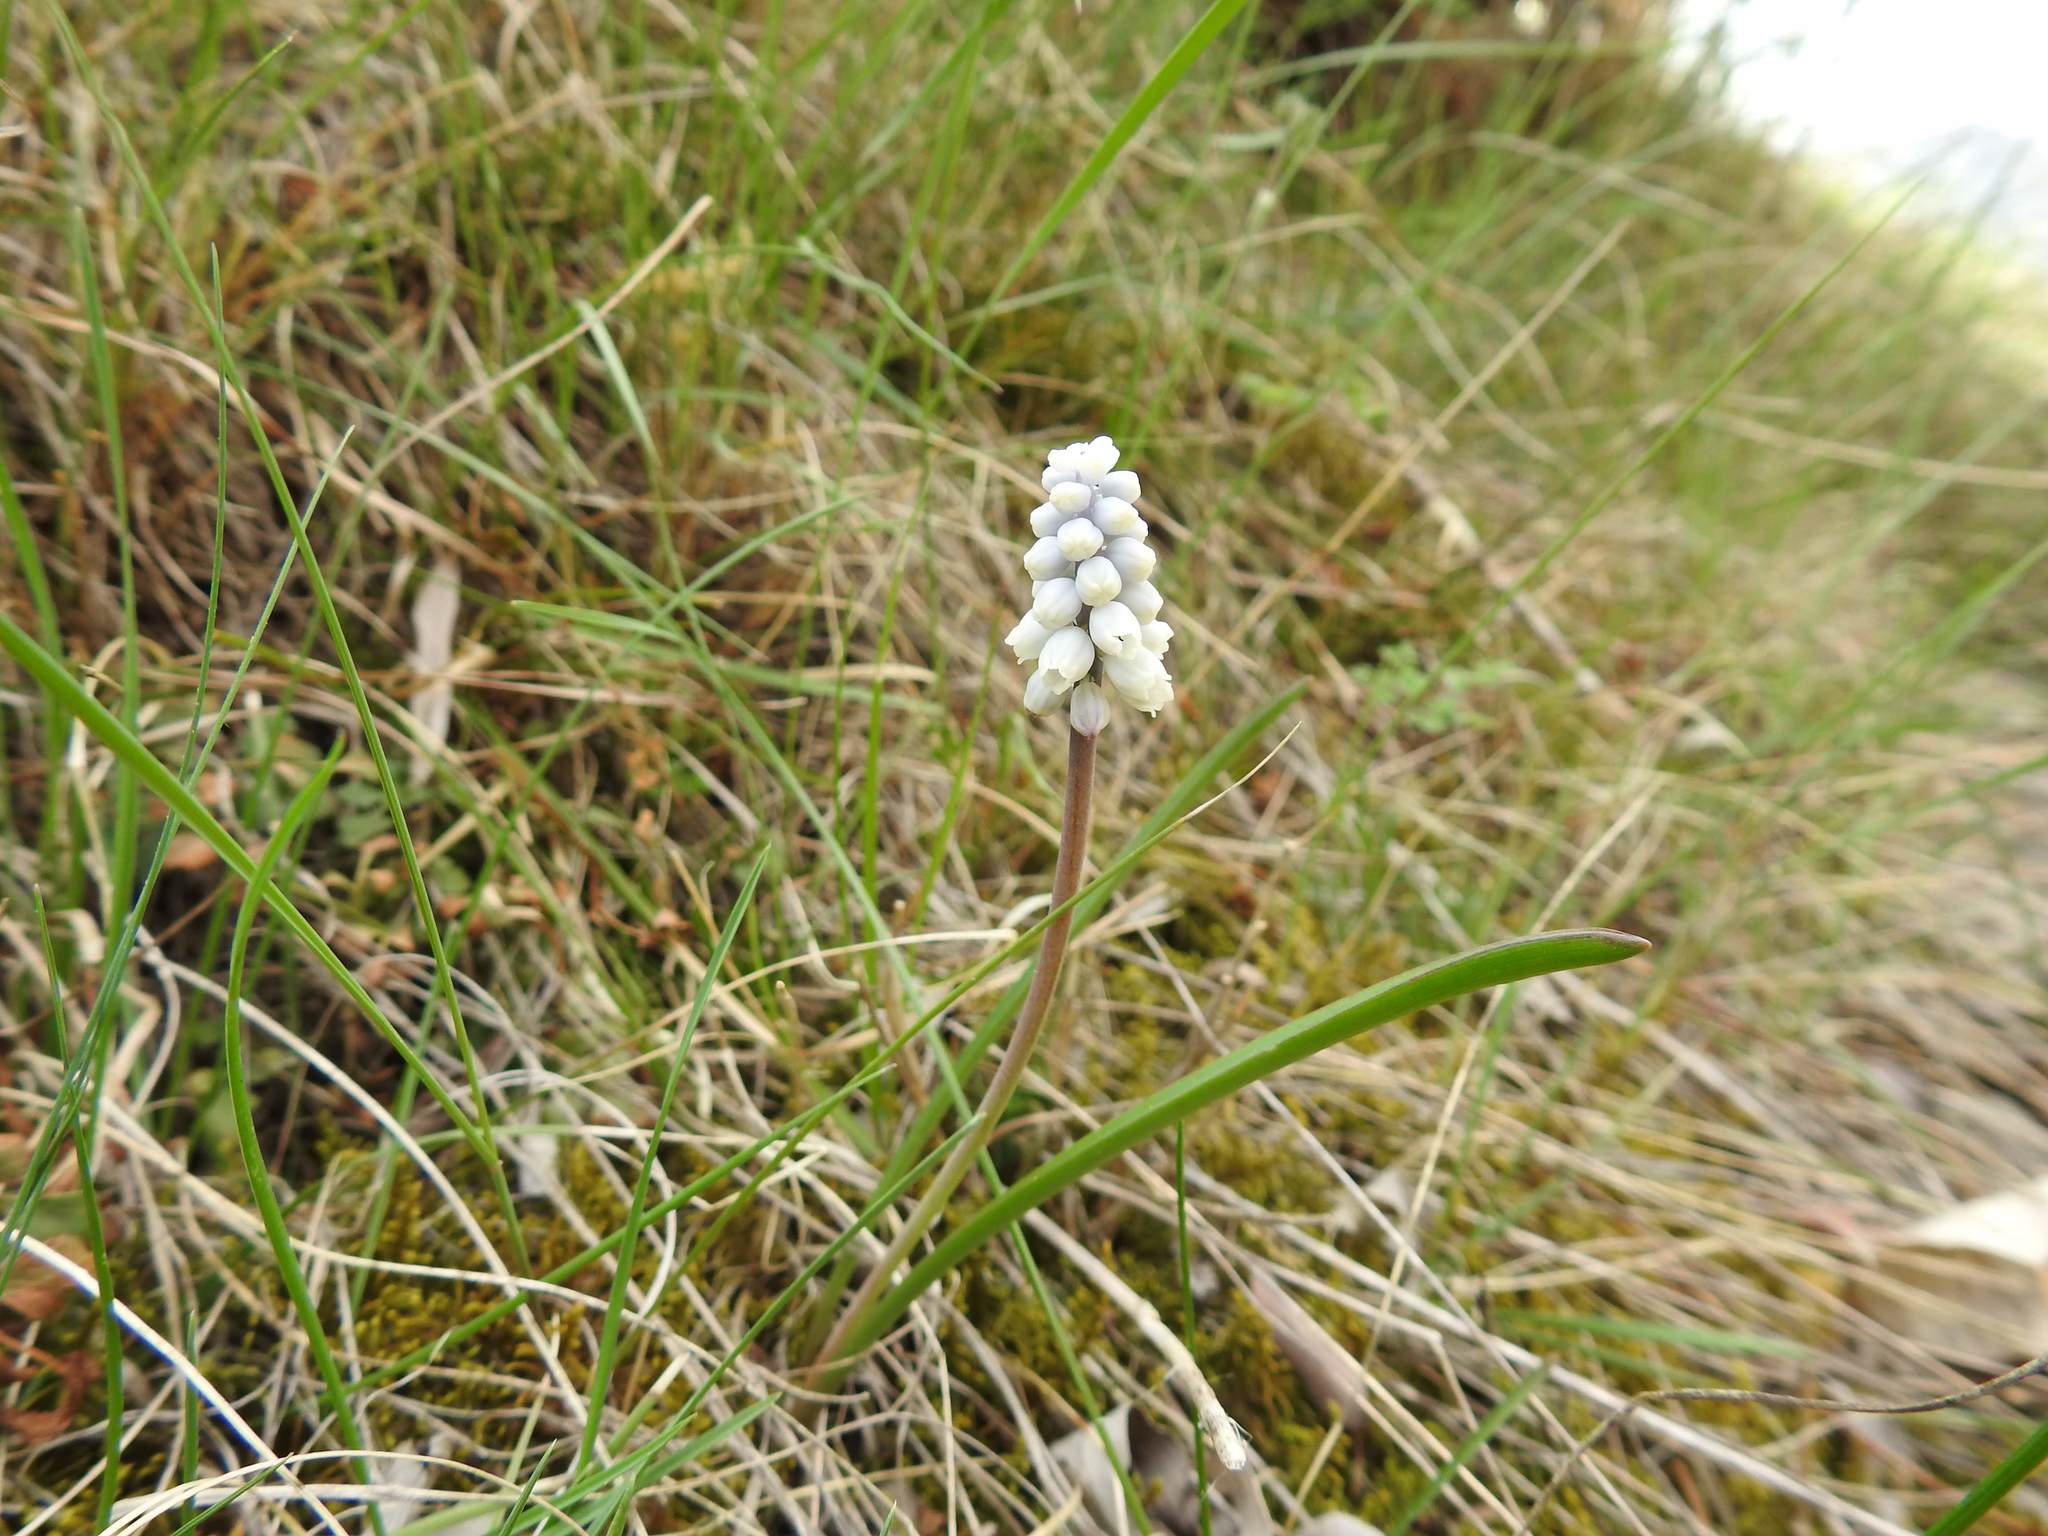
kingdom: Plantae
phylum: Tracheophyta
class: Liliopsida
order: Asparagales
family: Asparagaceae
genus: Muscari
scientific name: Muscari pallens
